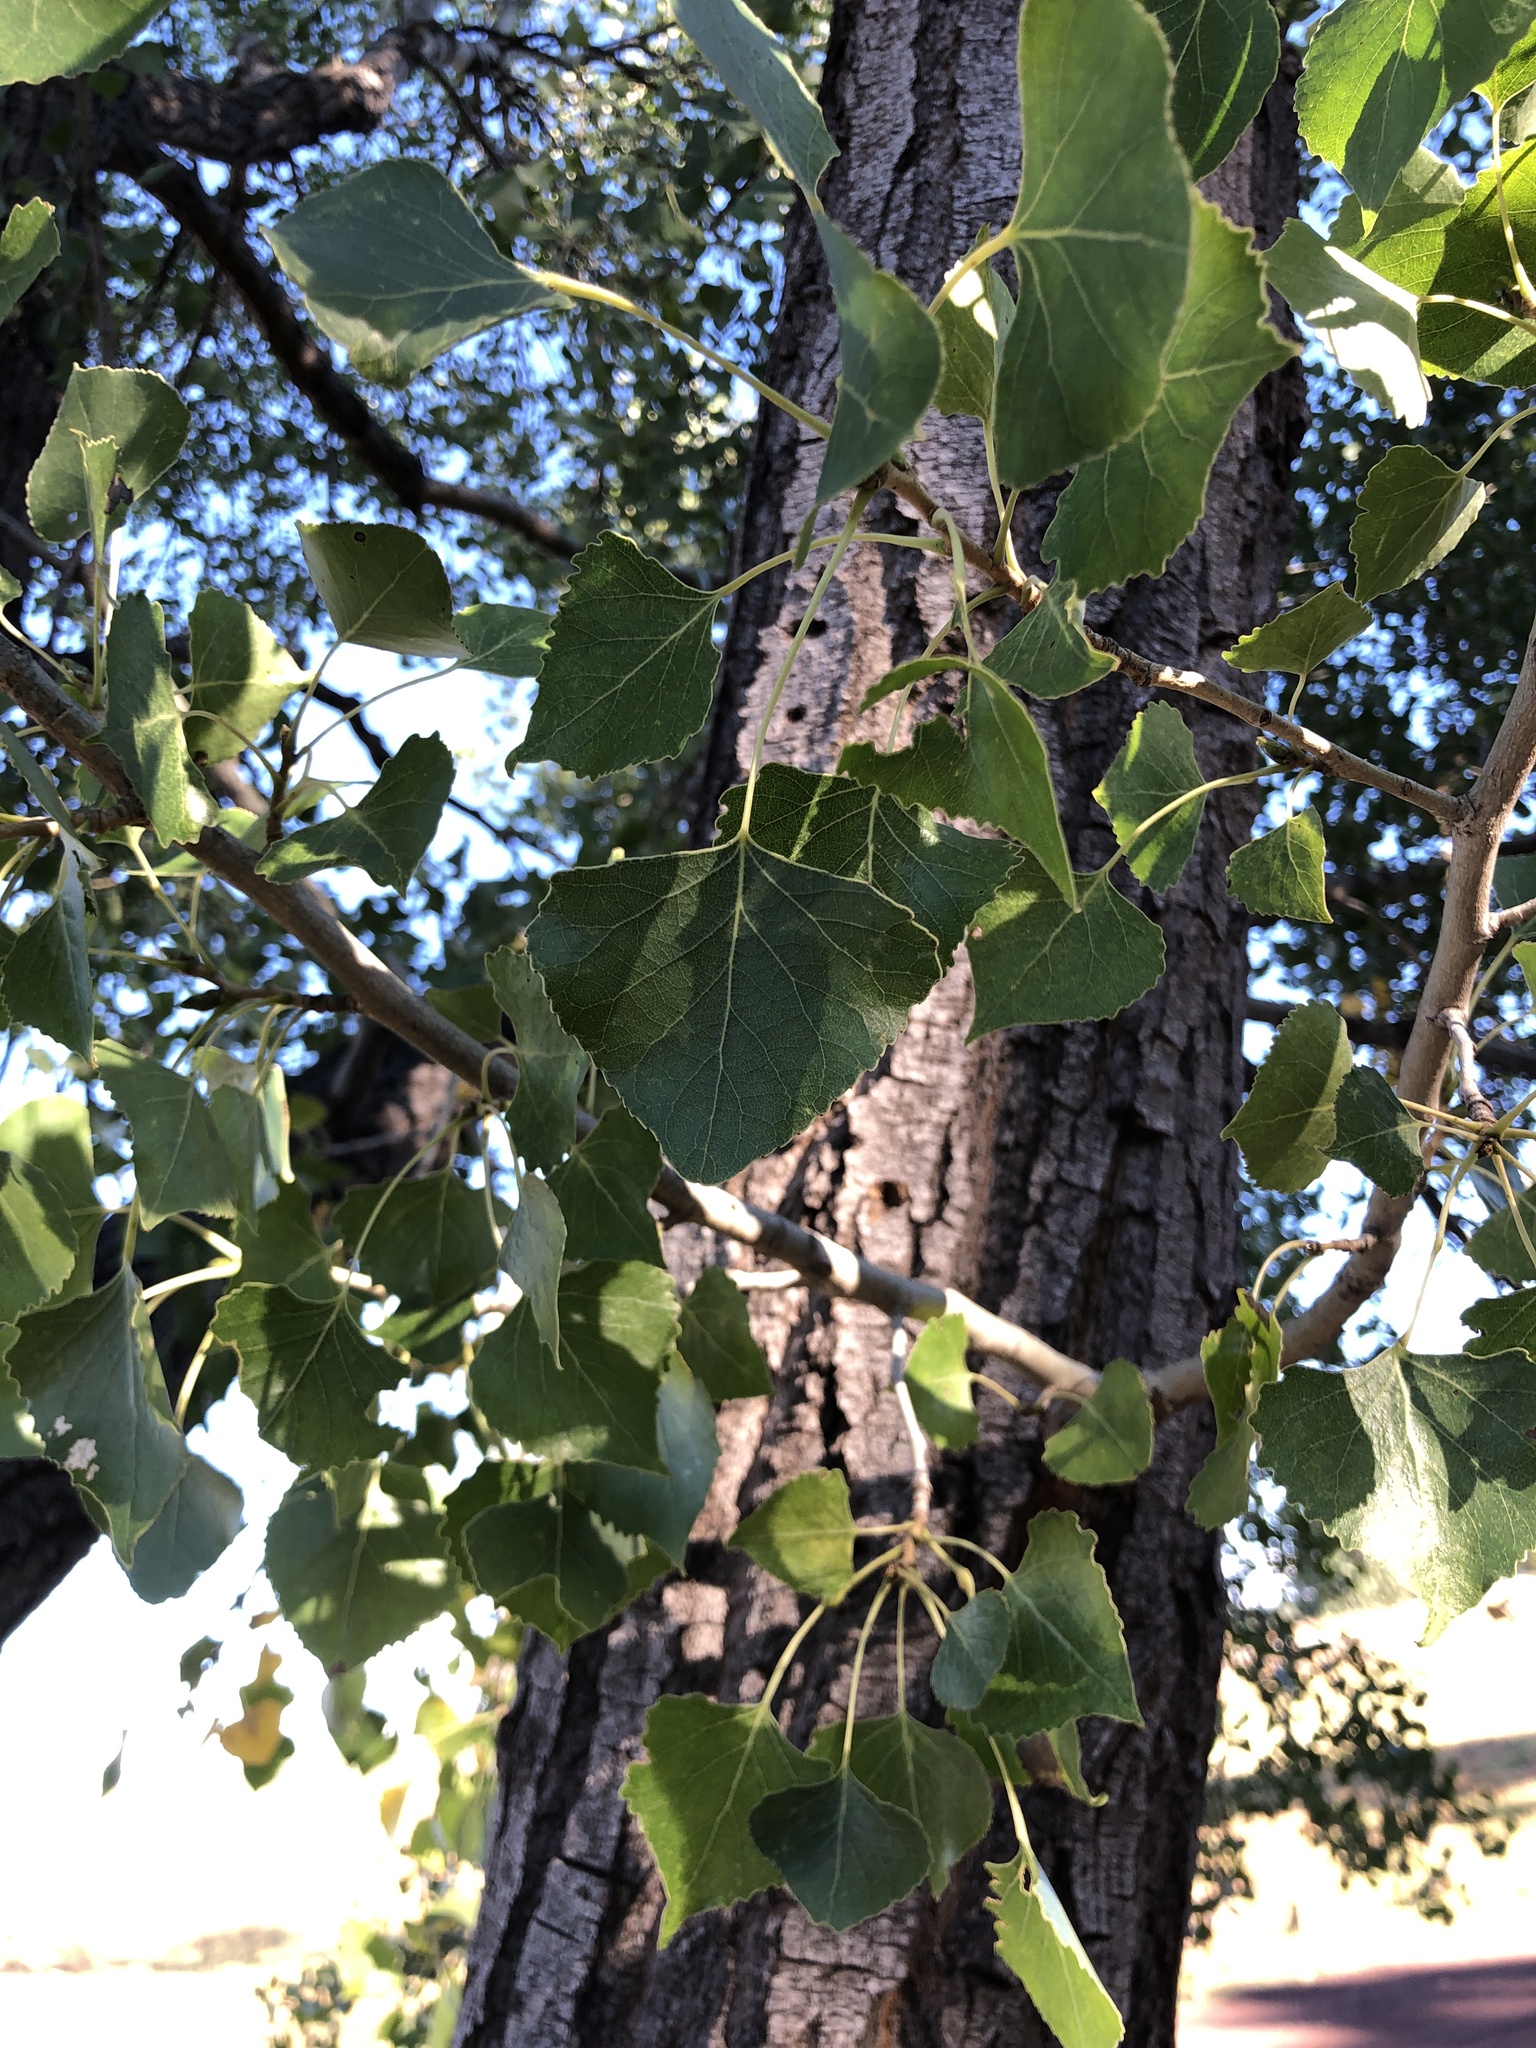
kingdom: Plantae
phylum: Tracheophyta
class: Magnoliopsida
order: Malpighiales
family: Salicaceae
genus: Populus
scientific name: Populus fremontii
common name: Fremont's cottonwood
